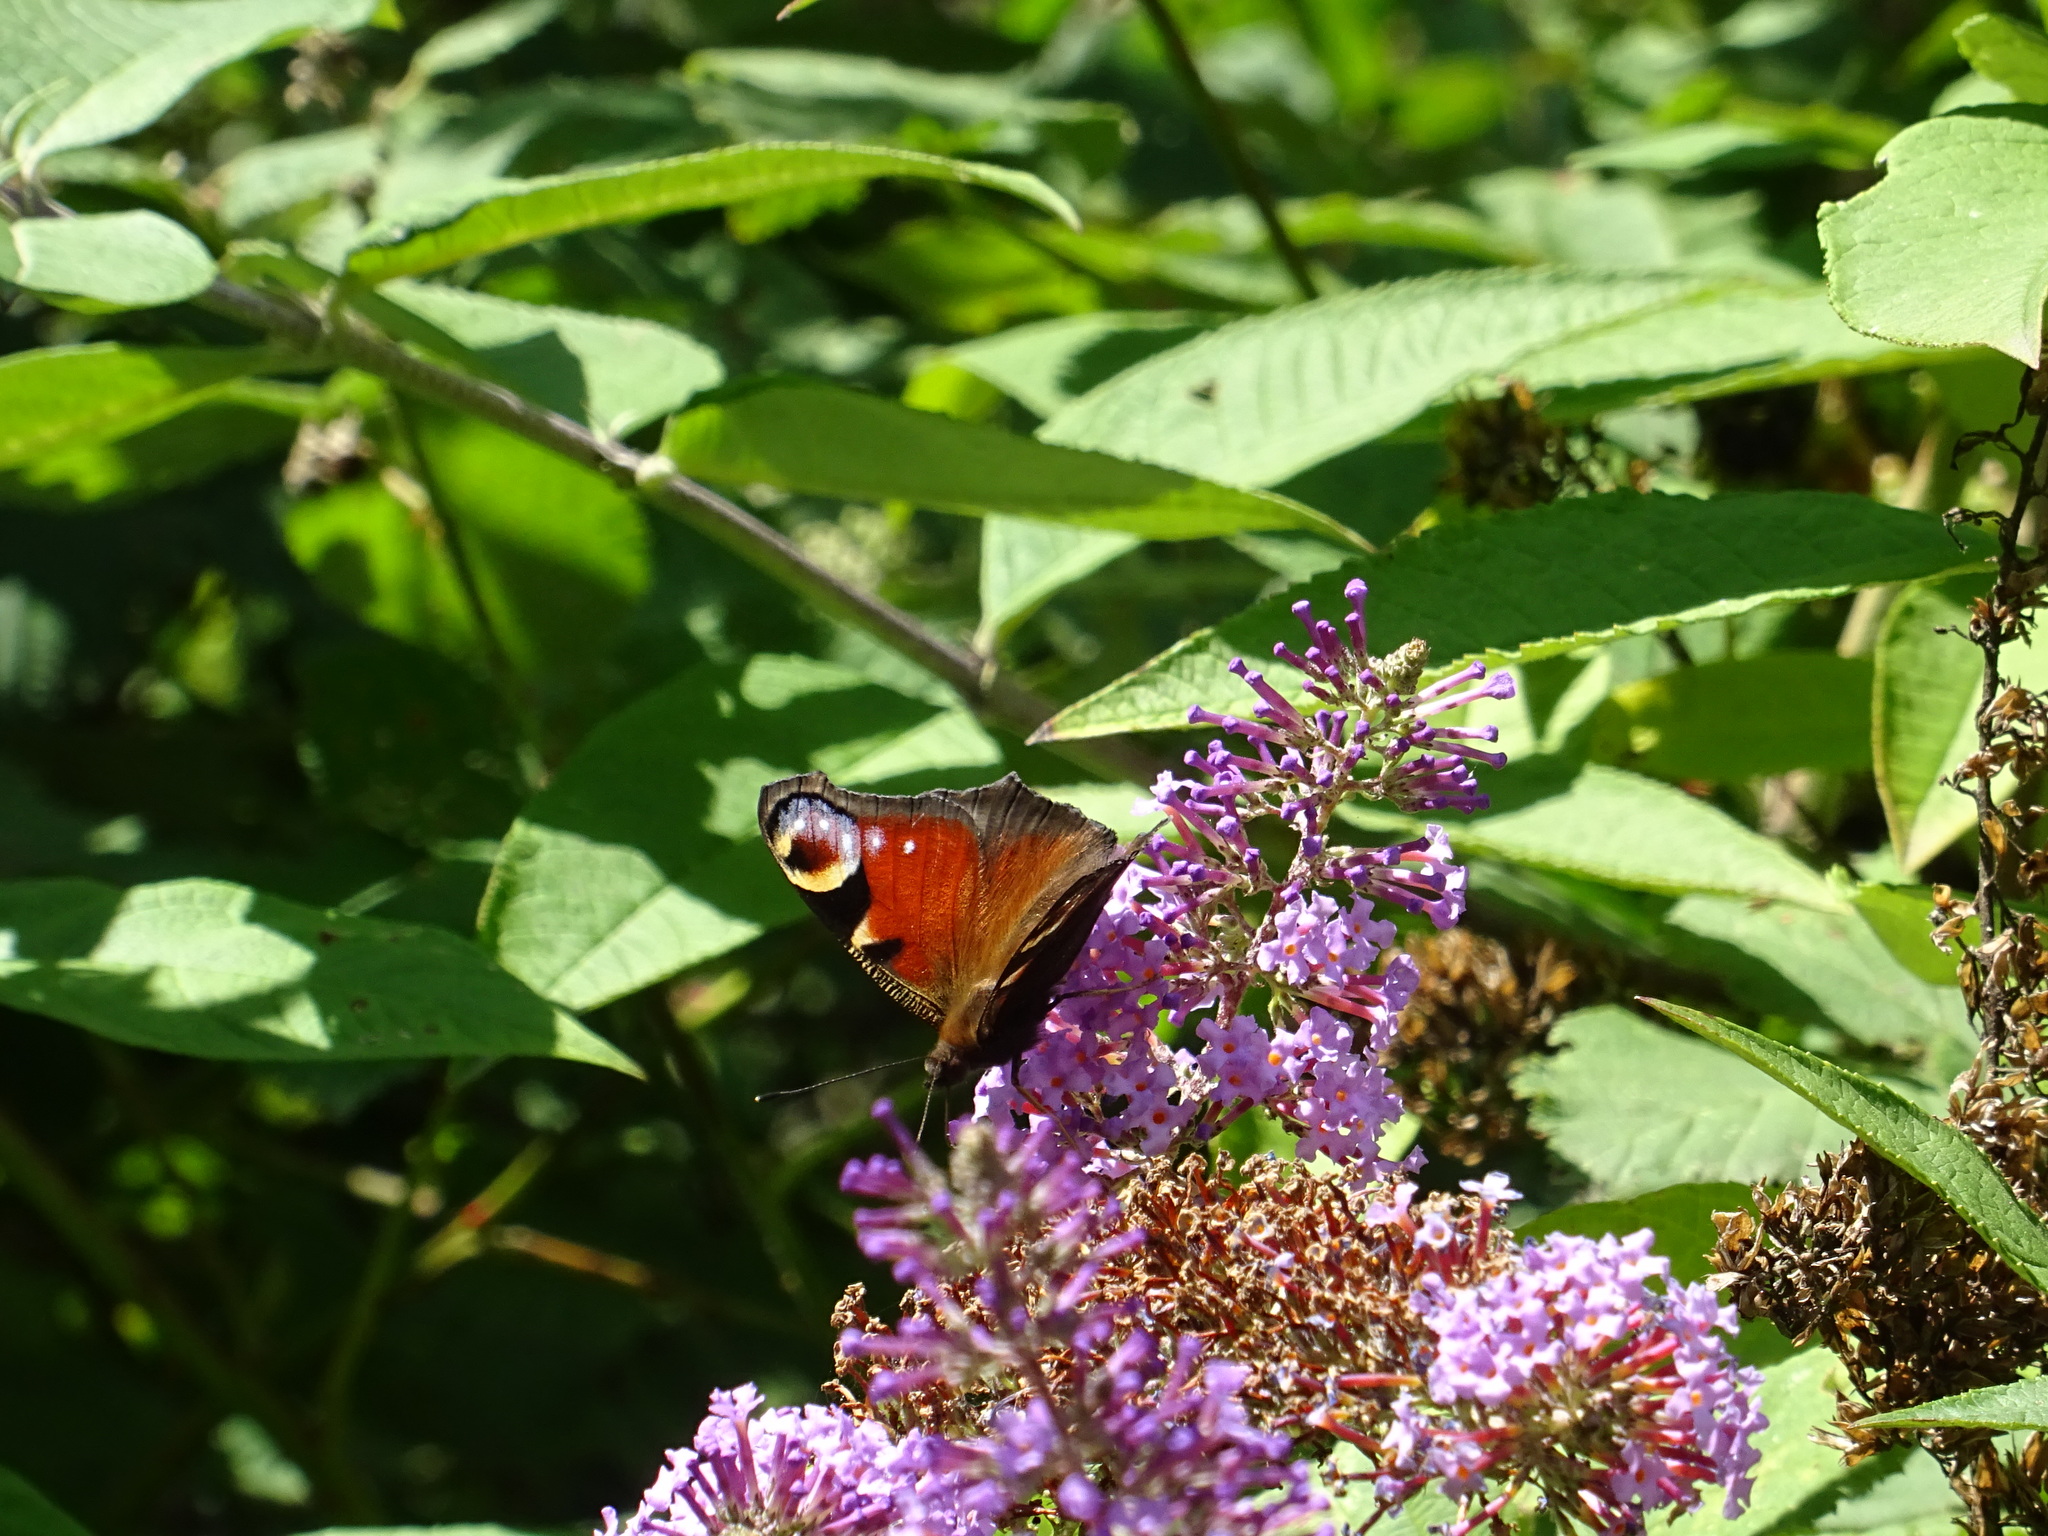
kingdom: Animalia
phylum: Arthropoda
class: Insecta
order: Lepidoptera
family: Nymphalidae
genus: Aglais
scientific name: Aglais io
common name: Peacock
